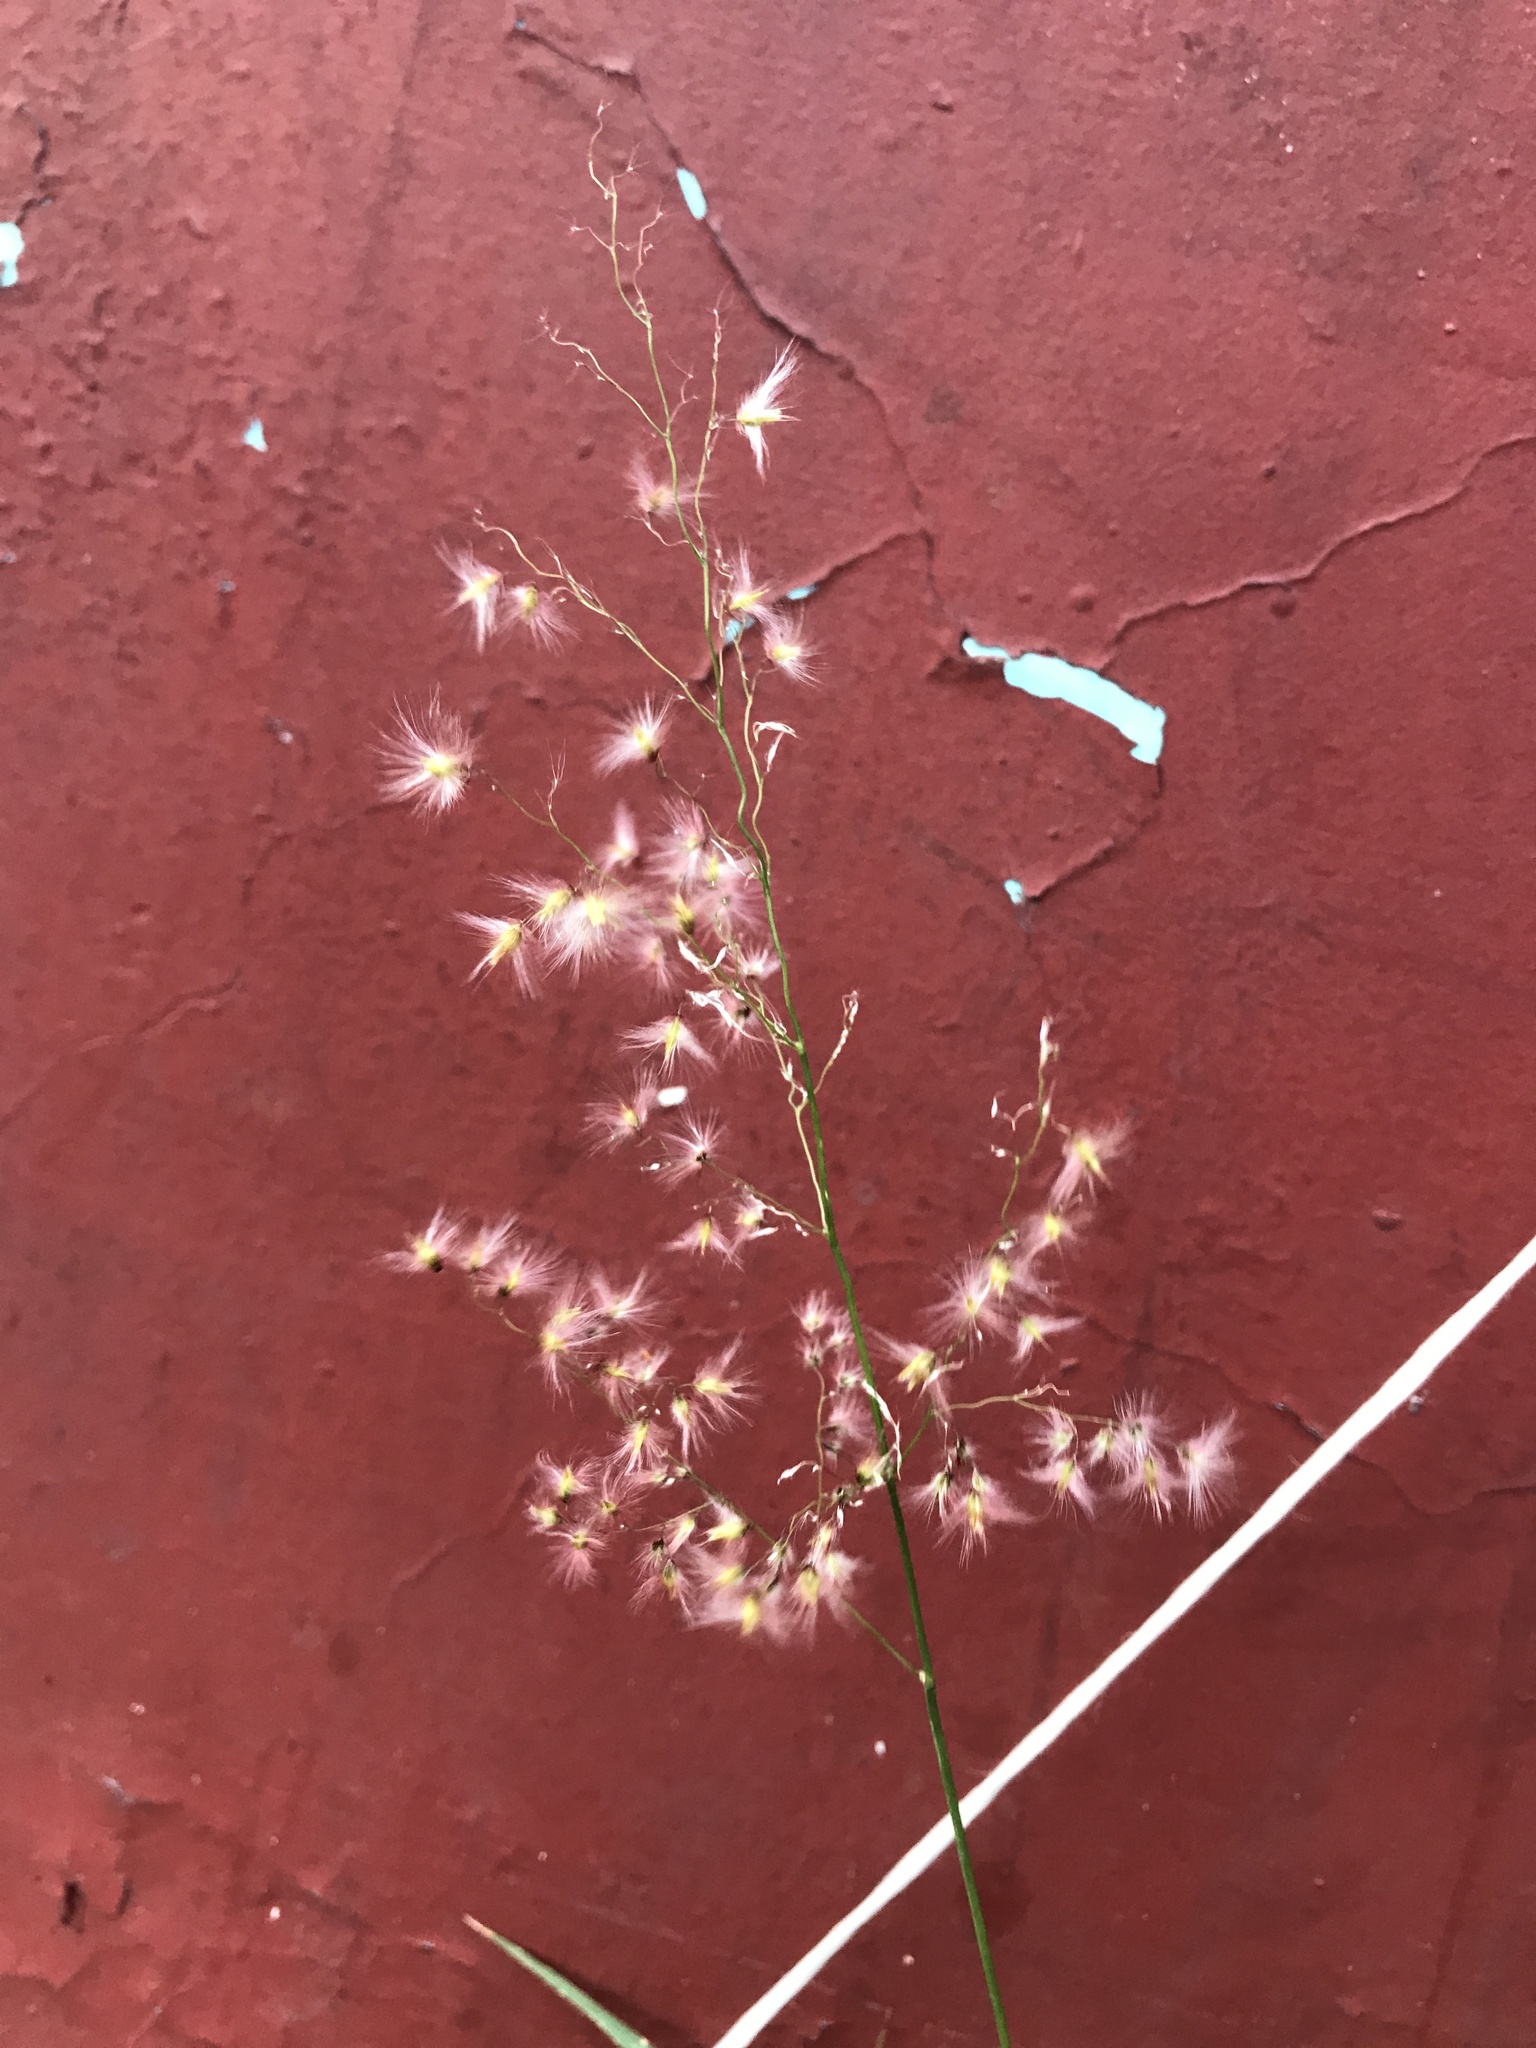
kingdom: Plantae
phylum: Tracheophyta
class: Liliopsida
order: Poales
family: Poaceae
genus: Melinis
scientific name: Melinis repens
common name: Rose natal grass
